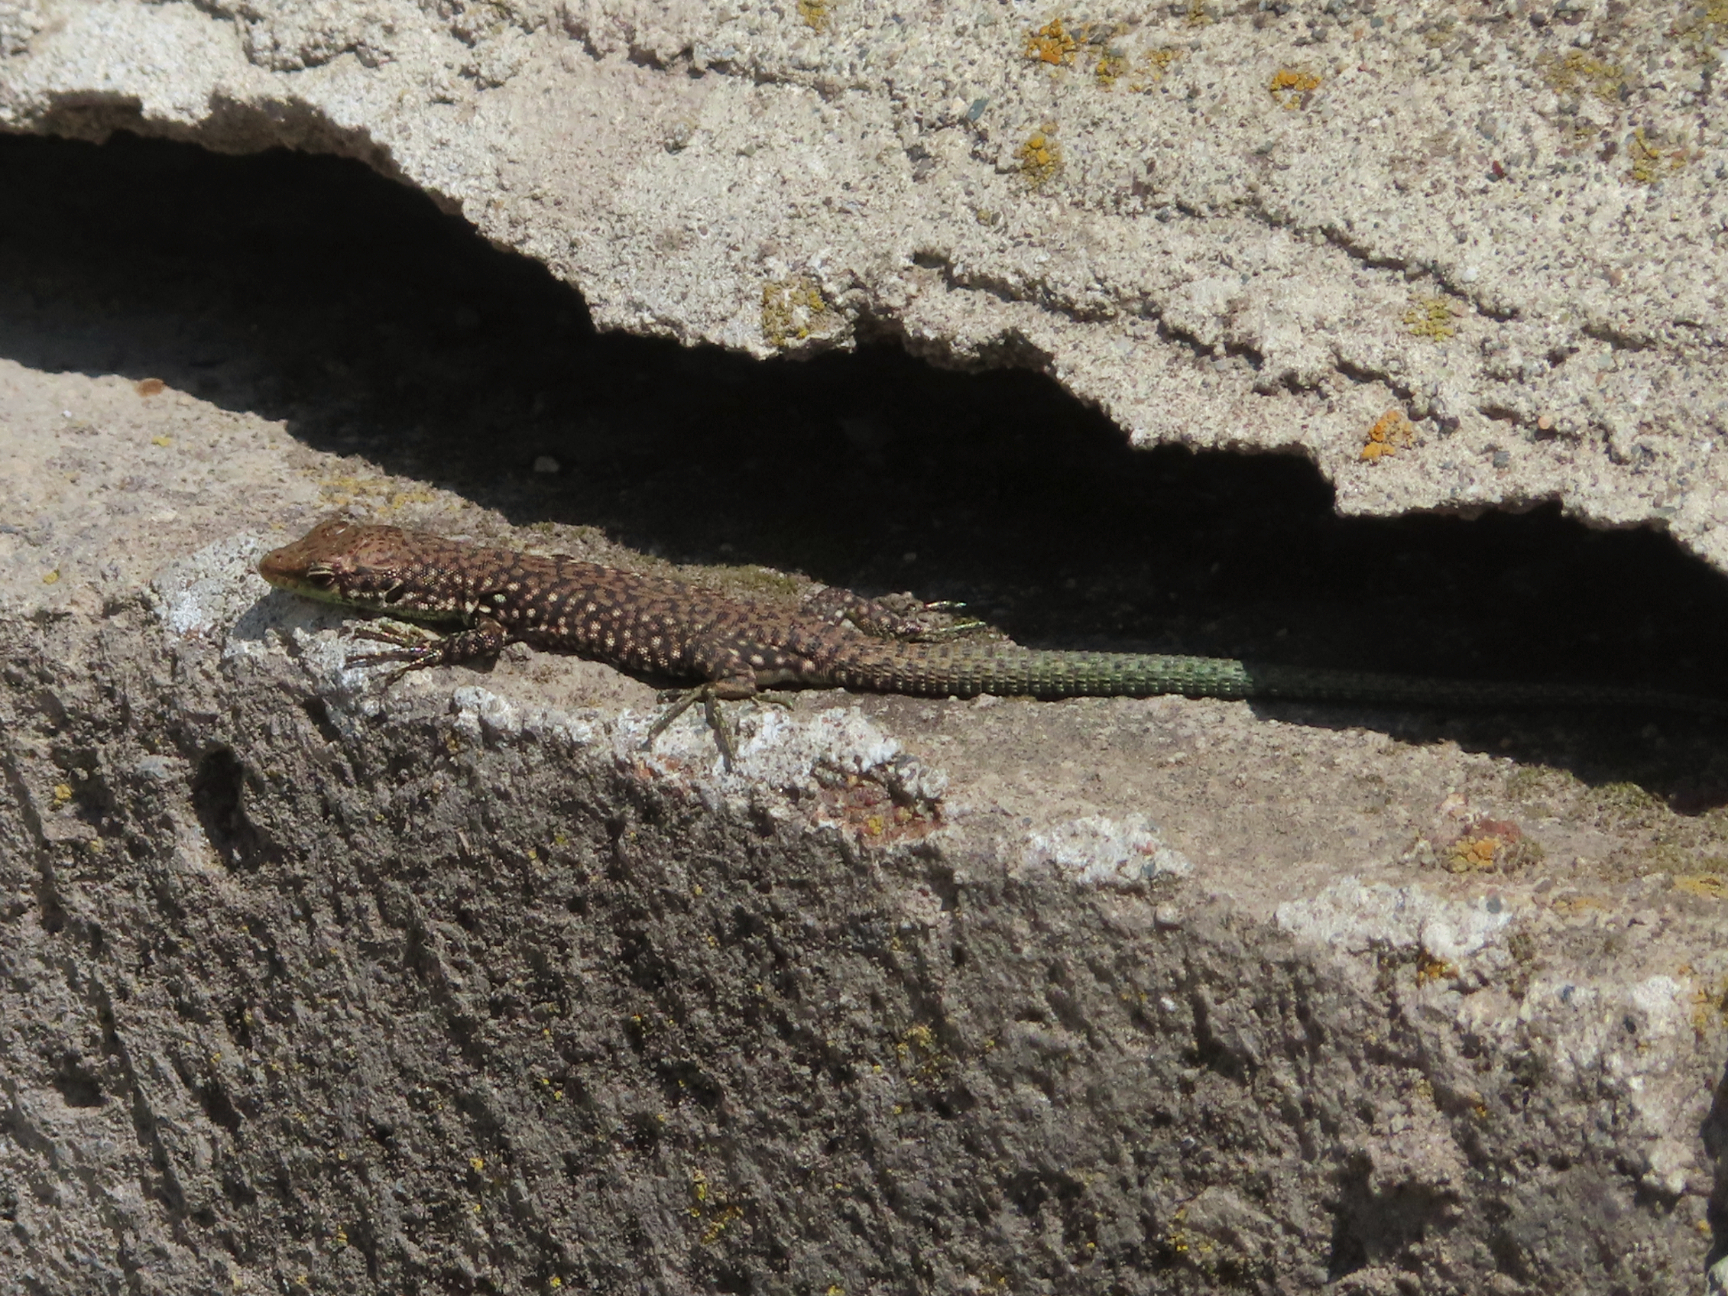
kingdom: Animalia
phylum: Chordata
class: Squamata
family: Lacertidae
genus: Darevskia
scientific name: Darevskia
